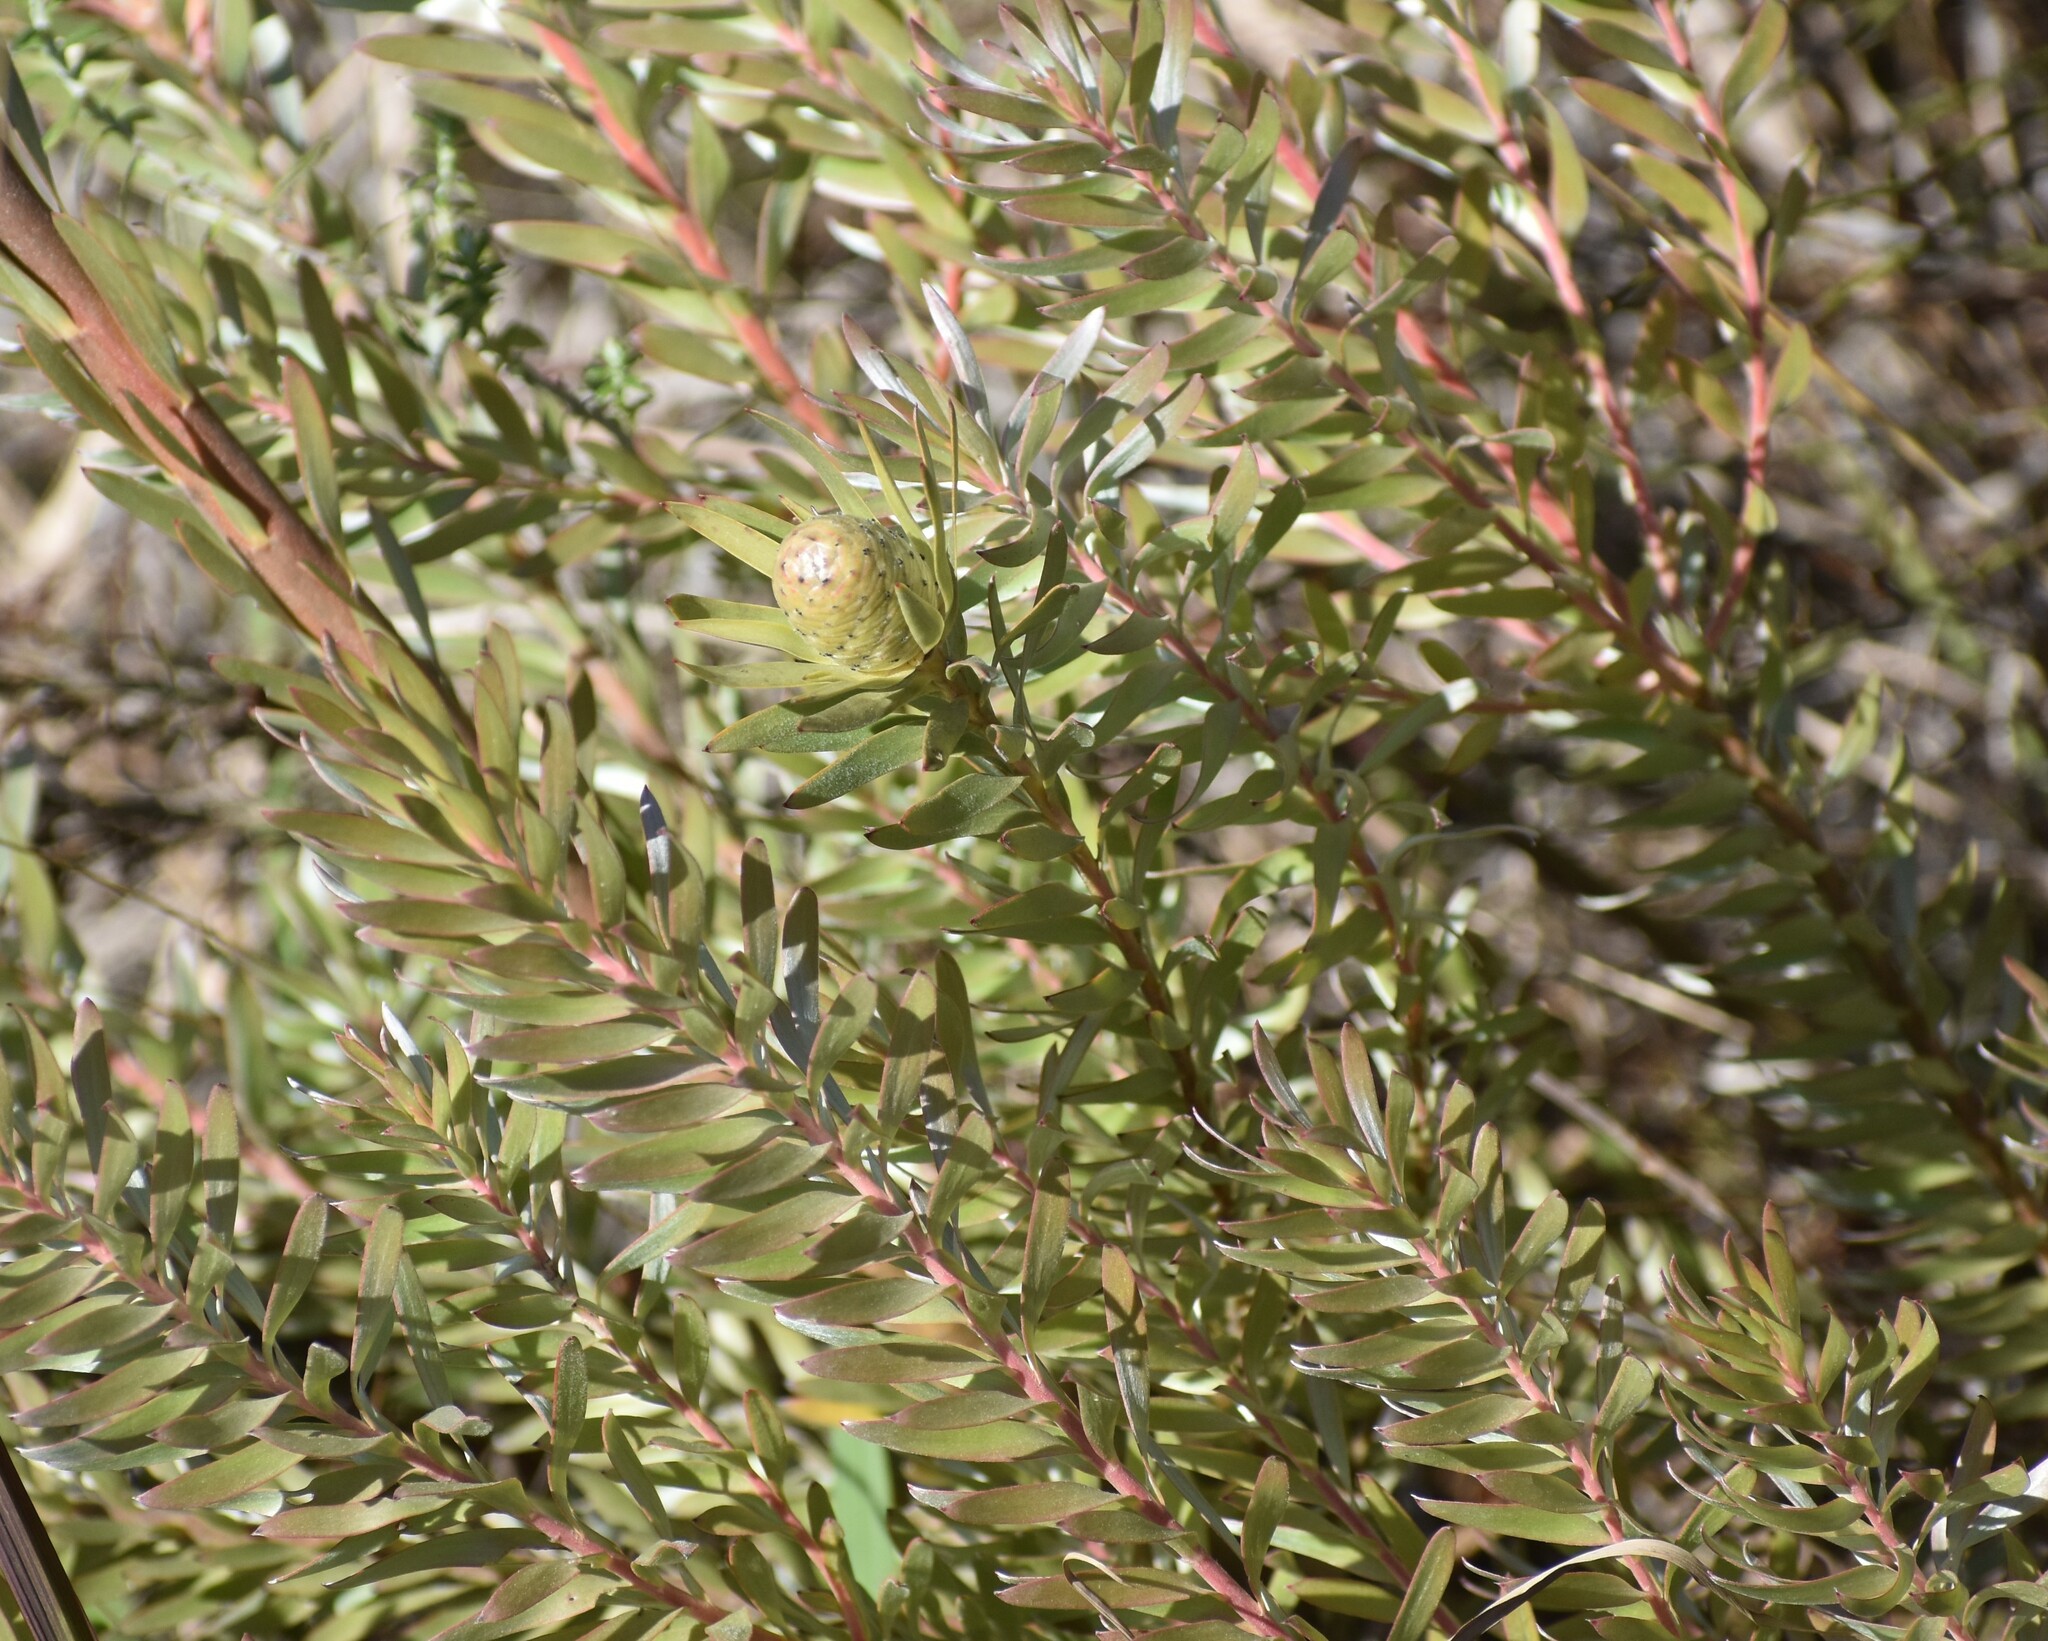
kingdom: Plantae
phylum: Tracheophyta
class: Magnoliopsida
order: Proteales
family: Proteaceae
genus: Leucadendron
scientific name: Leucadendron uliginosum
